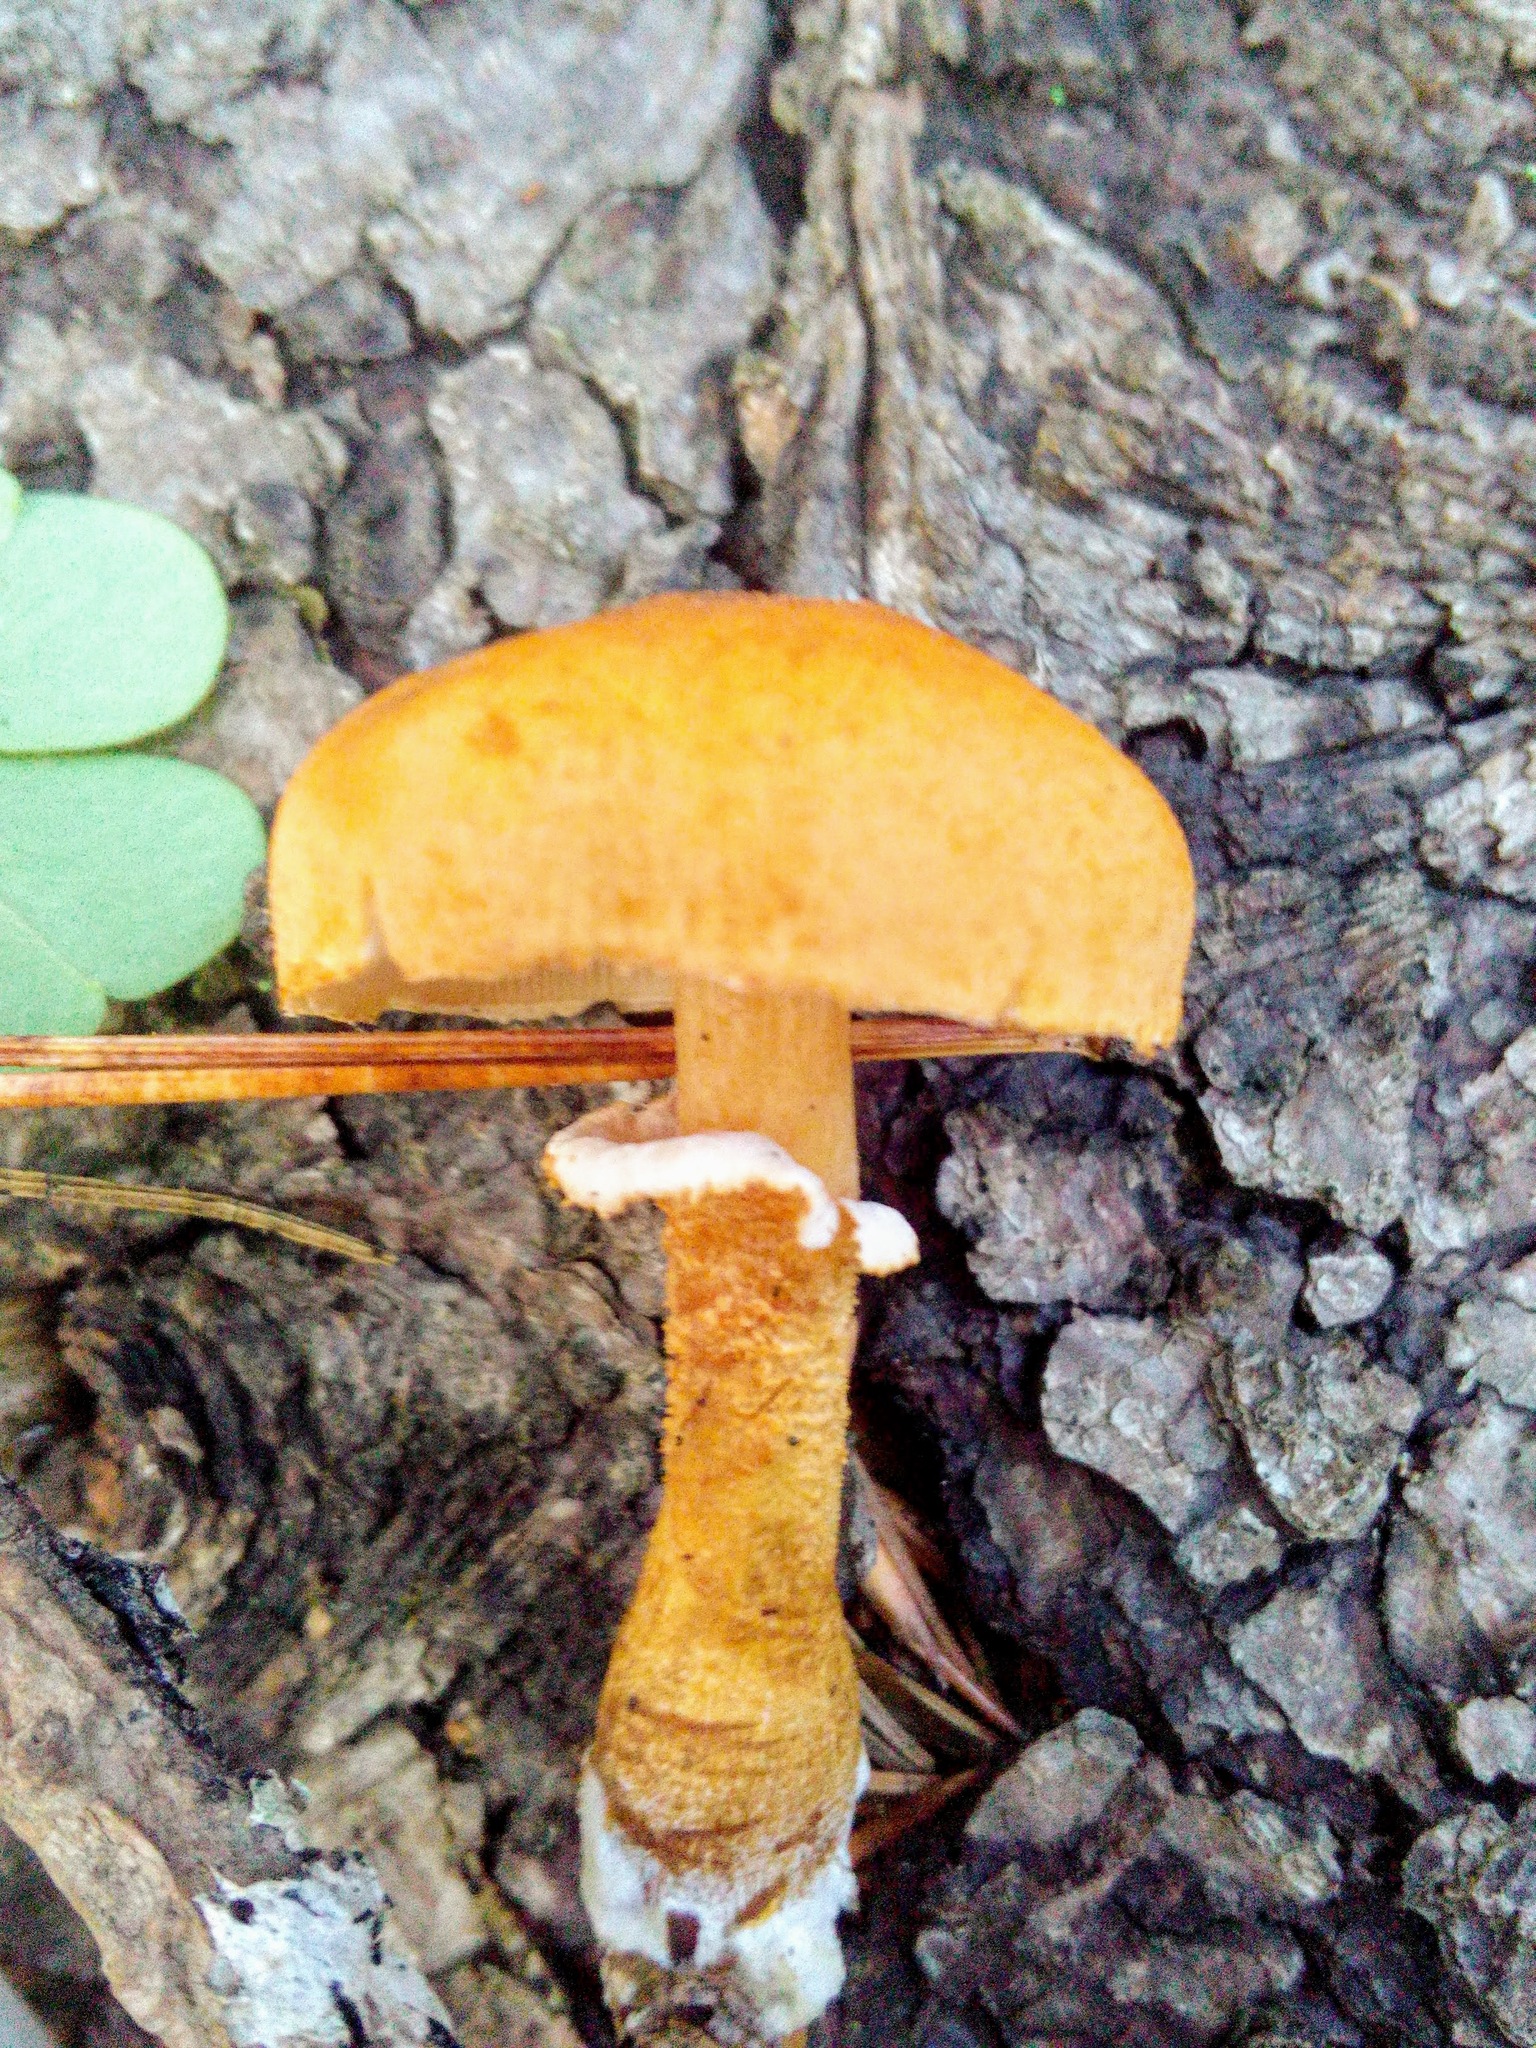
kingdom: Fungi
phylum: Basidiomycota
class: Agaricomycetes
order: Agaricales
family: Agaricaceae
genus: Cystodermella
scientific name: Cystodermella cinnabarina
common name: Cinnabar powdercap
